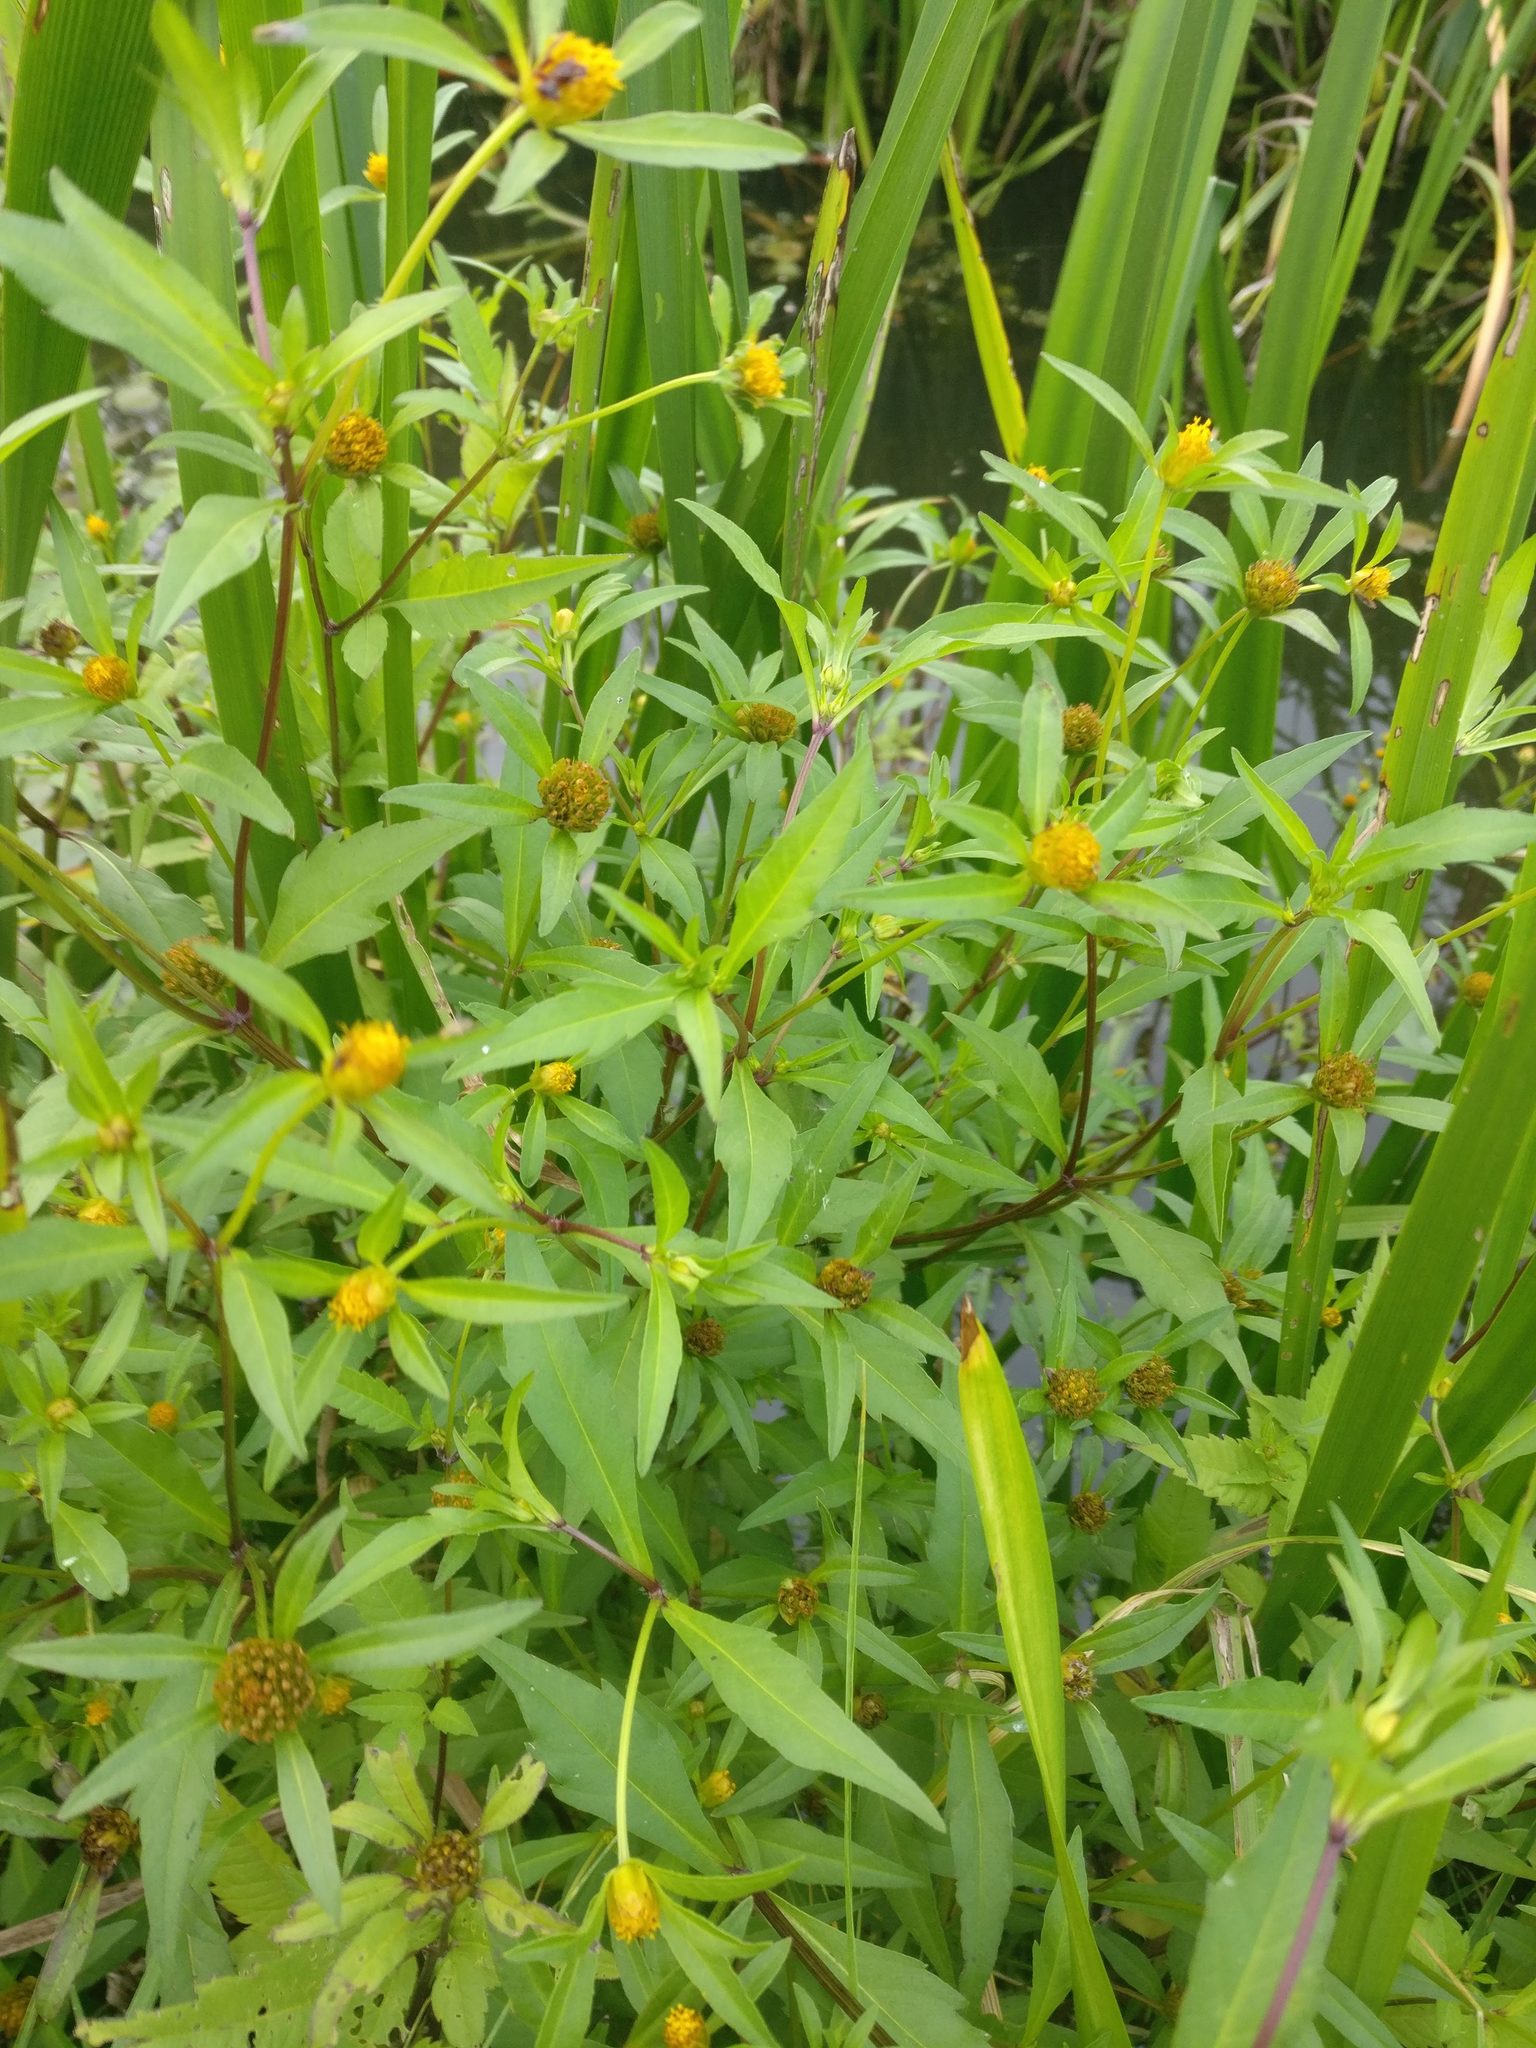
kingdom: Plantae
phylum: Tracheophyta
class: Magnoliopsida
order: Asterales
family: Asteraceae
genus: Bidens
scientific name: Bidens connata
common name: London bur-marigold
